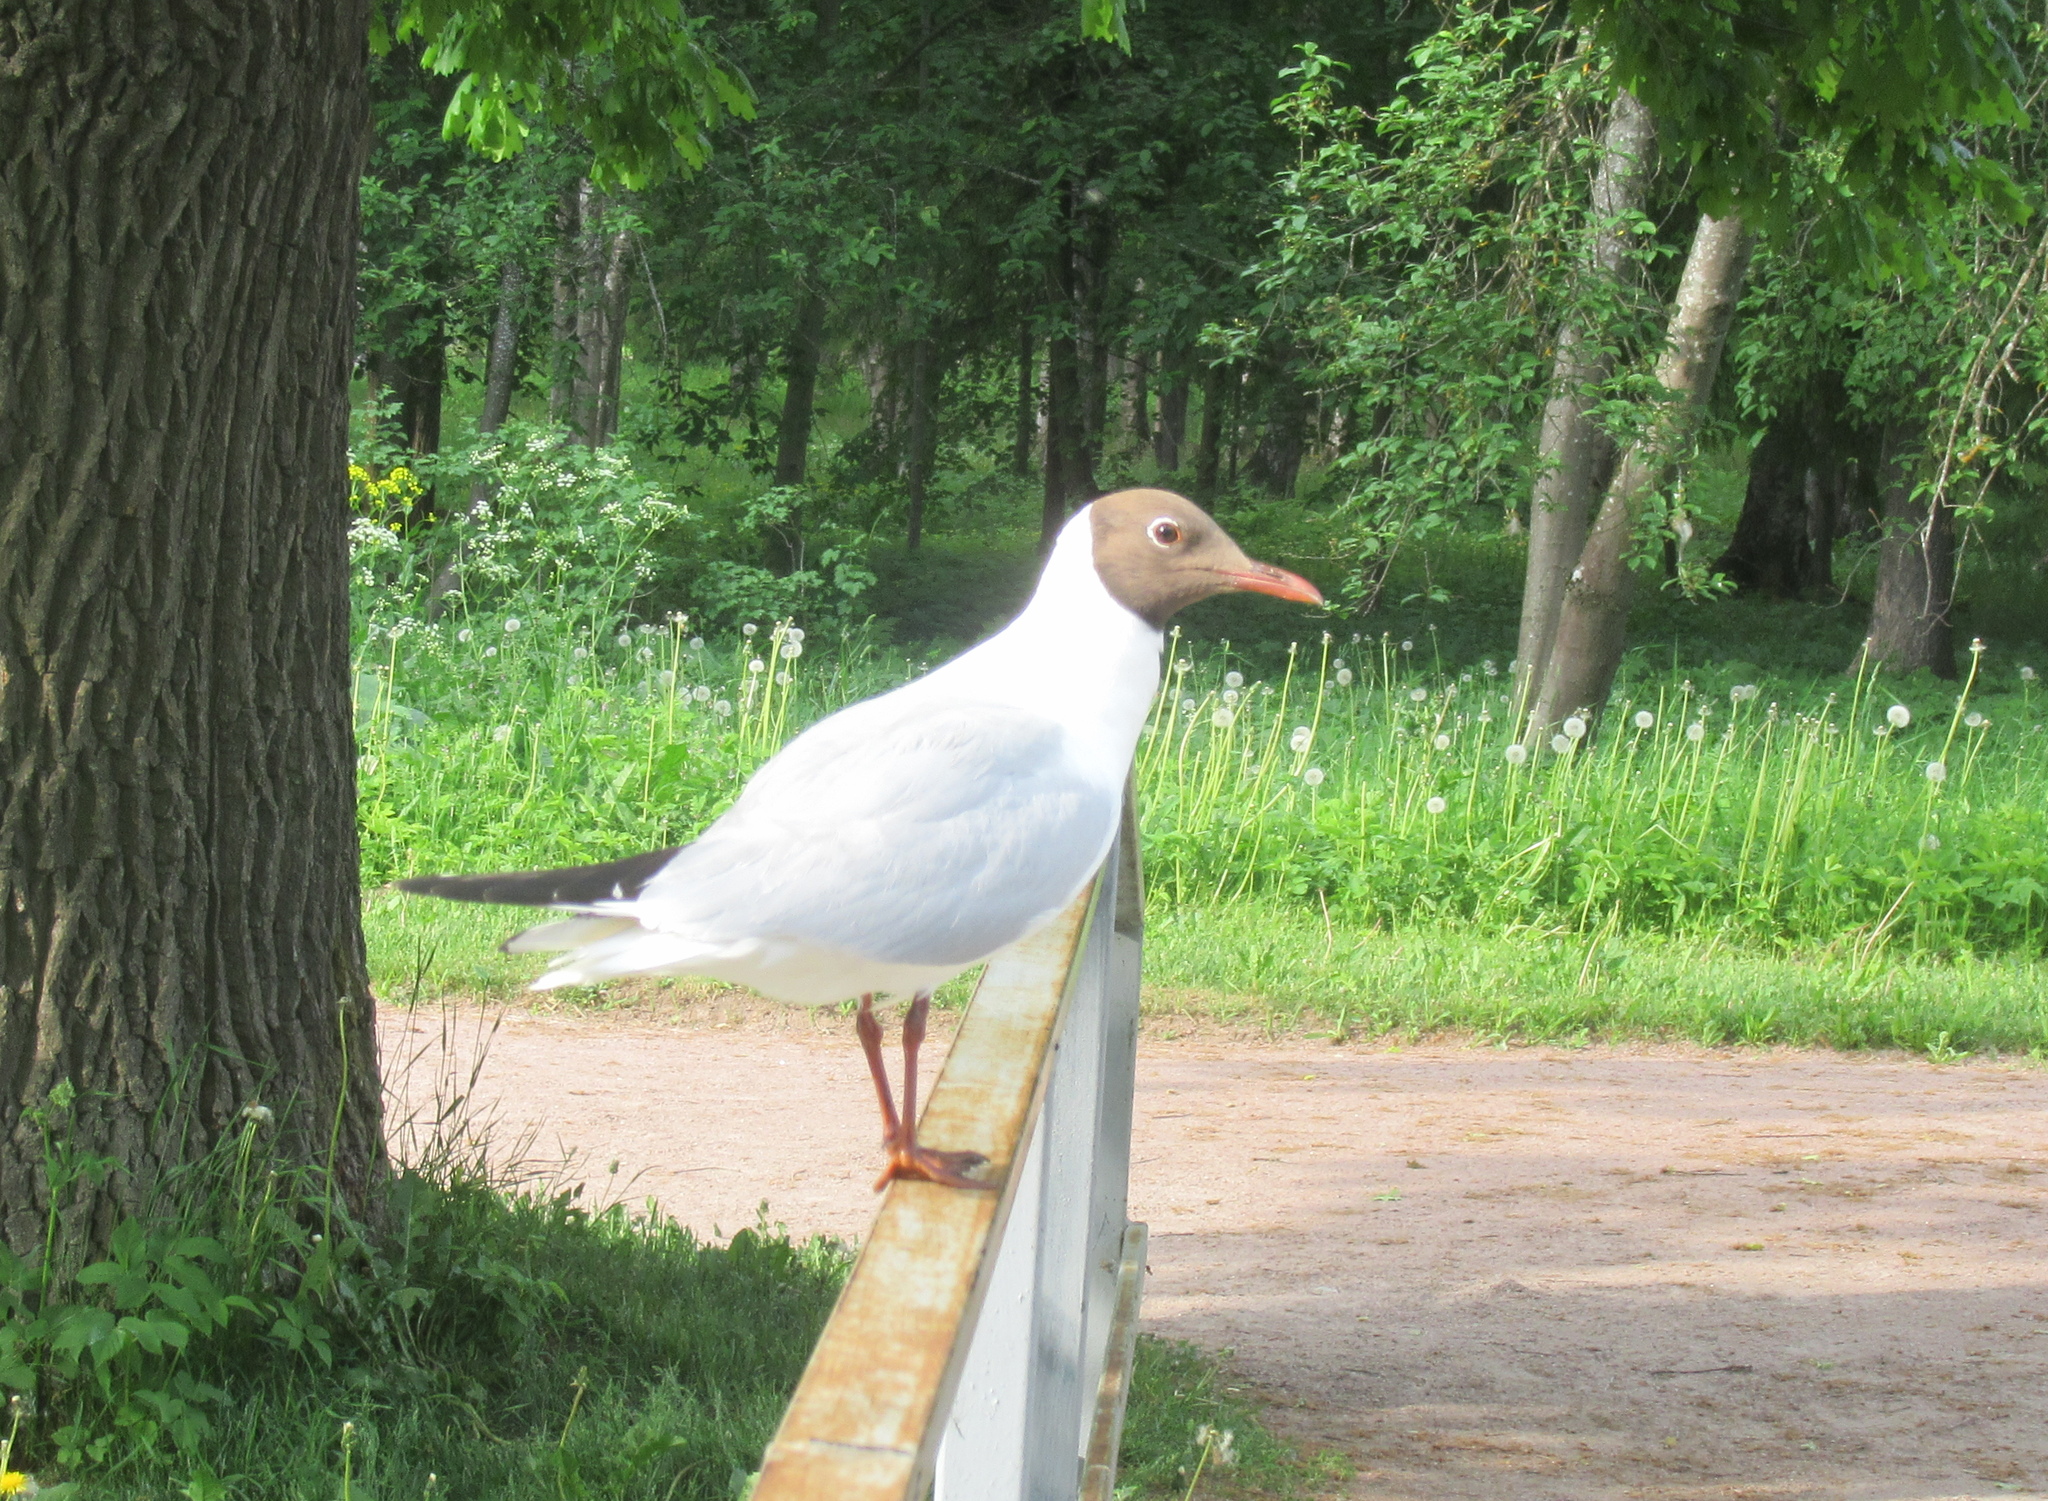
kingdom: Animalia
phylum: Chordata
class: Aves
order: Charadriiformes
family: Laridae
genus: Chroicocephalus
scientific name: Chroicocephalus ridibundus
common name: Black-headed gull
